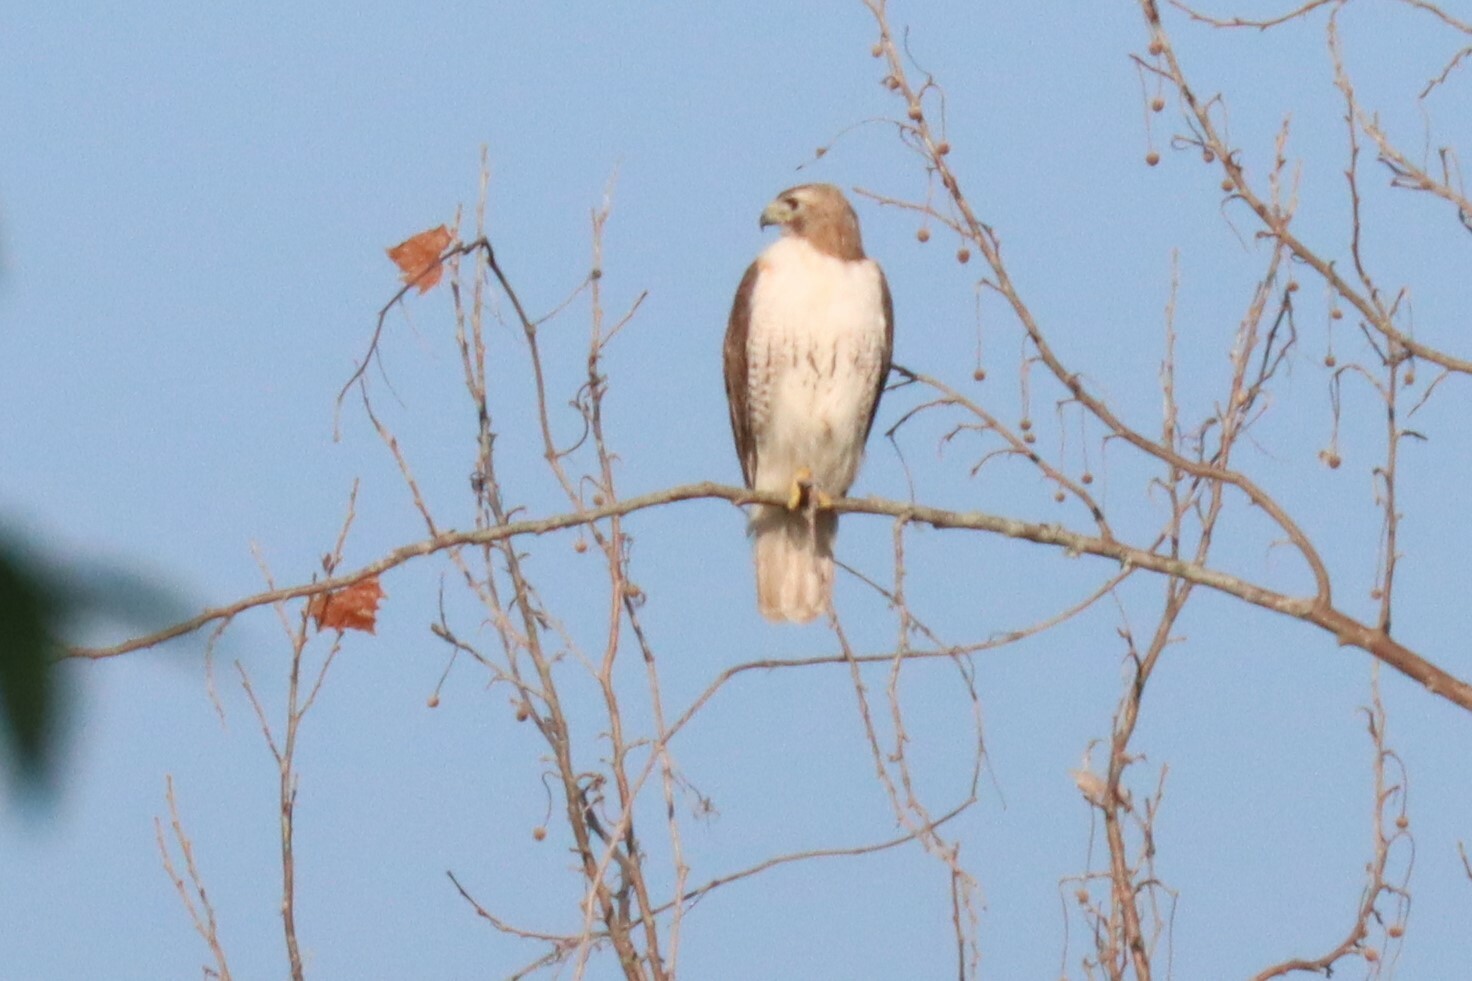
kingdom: Animalia
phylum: Chordata
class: Aves
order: Accipitriformes
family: Accipitridae
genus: Buteo
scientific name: Buteo jamaicensis
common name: Red-tailed hawk
